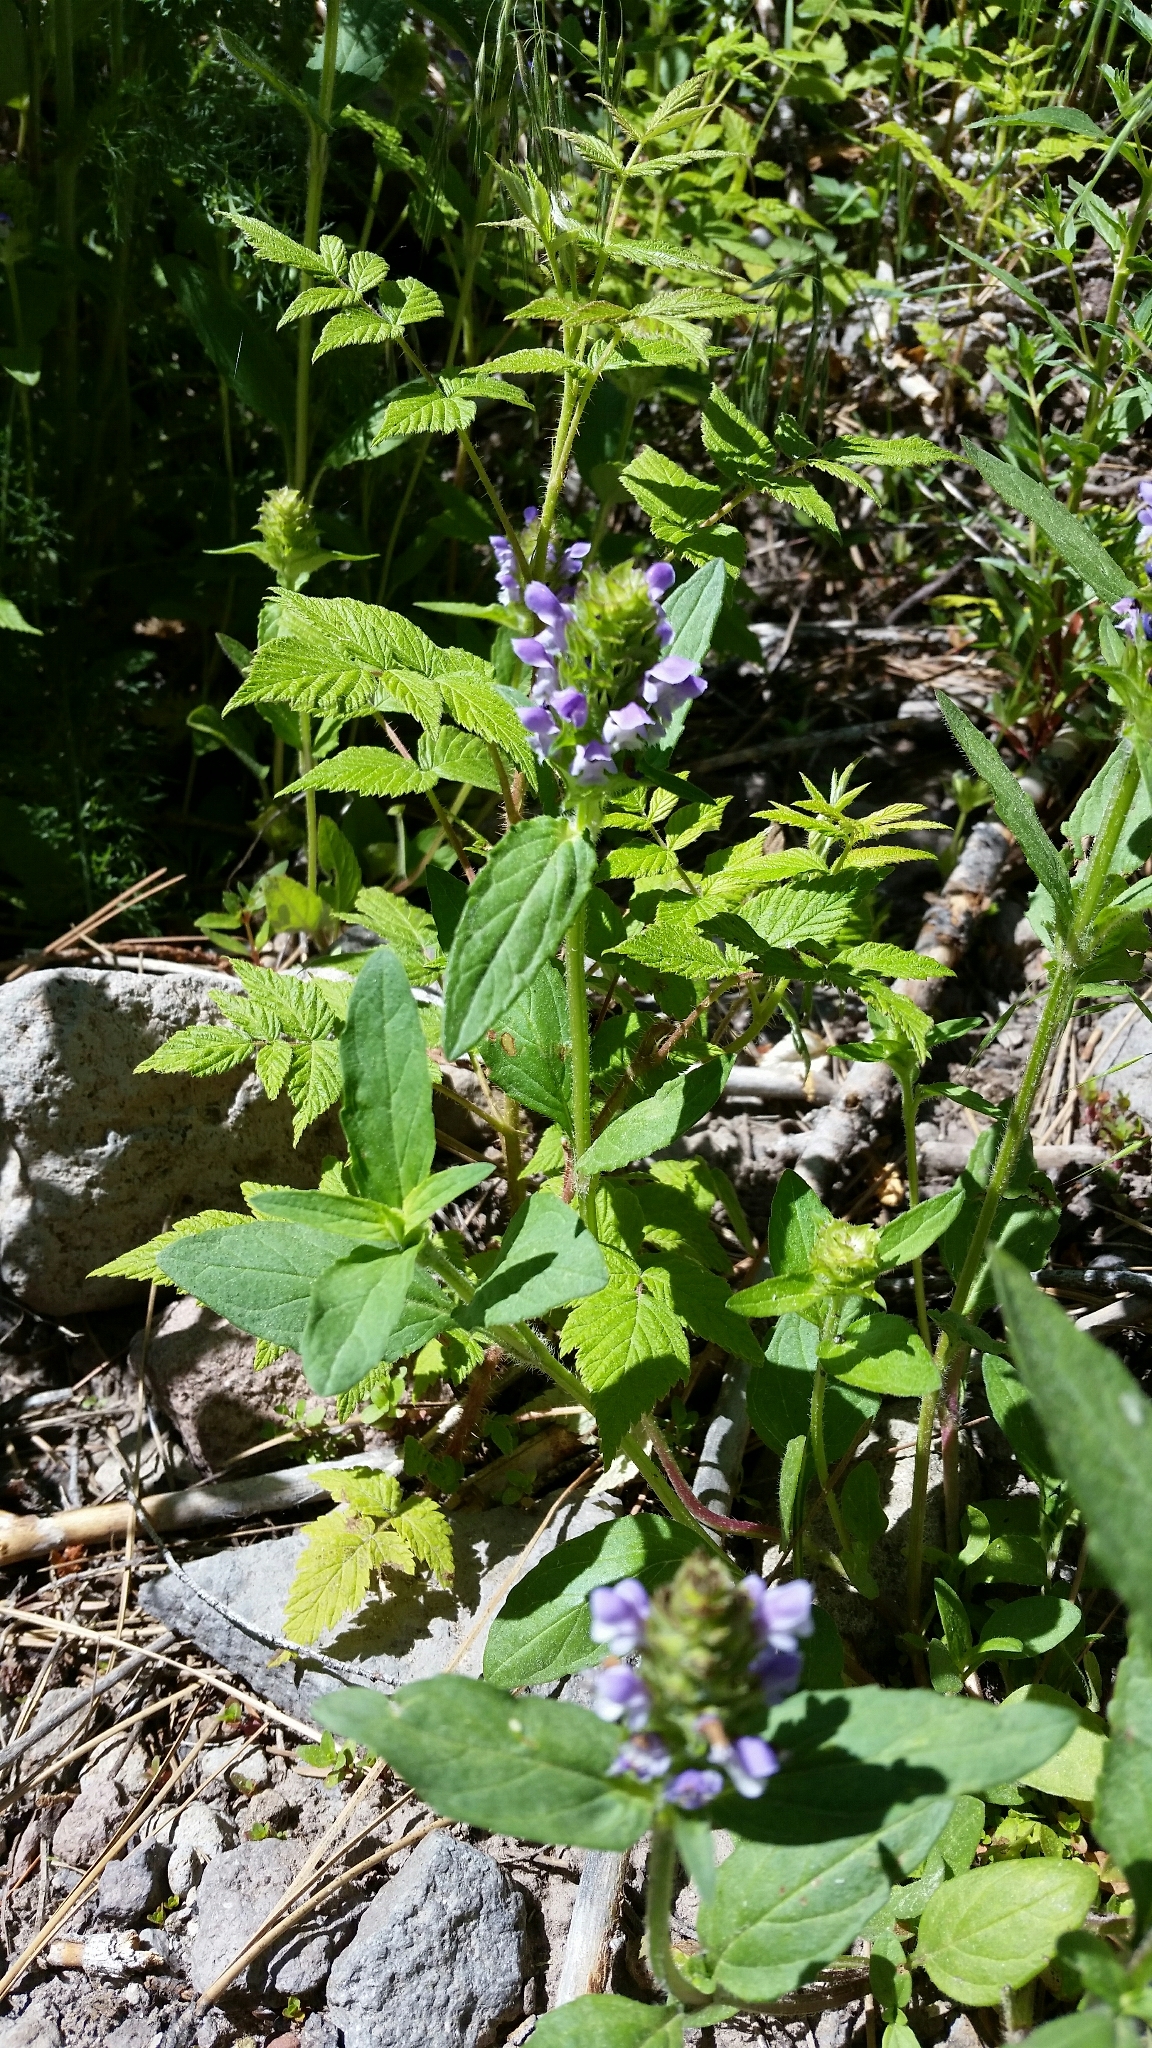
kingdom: Plantae
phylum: Tracheophyta
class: Magnoliopsida
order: Lamiales
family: Lamiaceae
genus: Prunella
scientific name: Prunella vulgaris
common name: Heal-all
